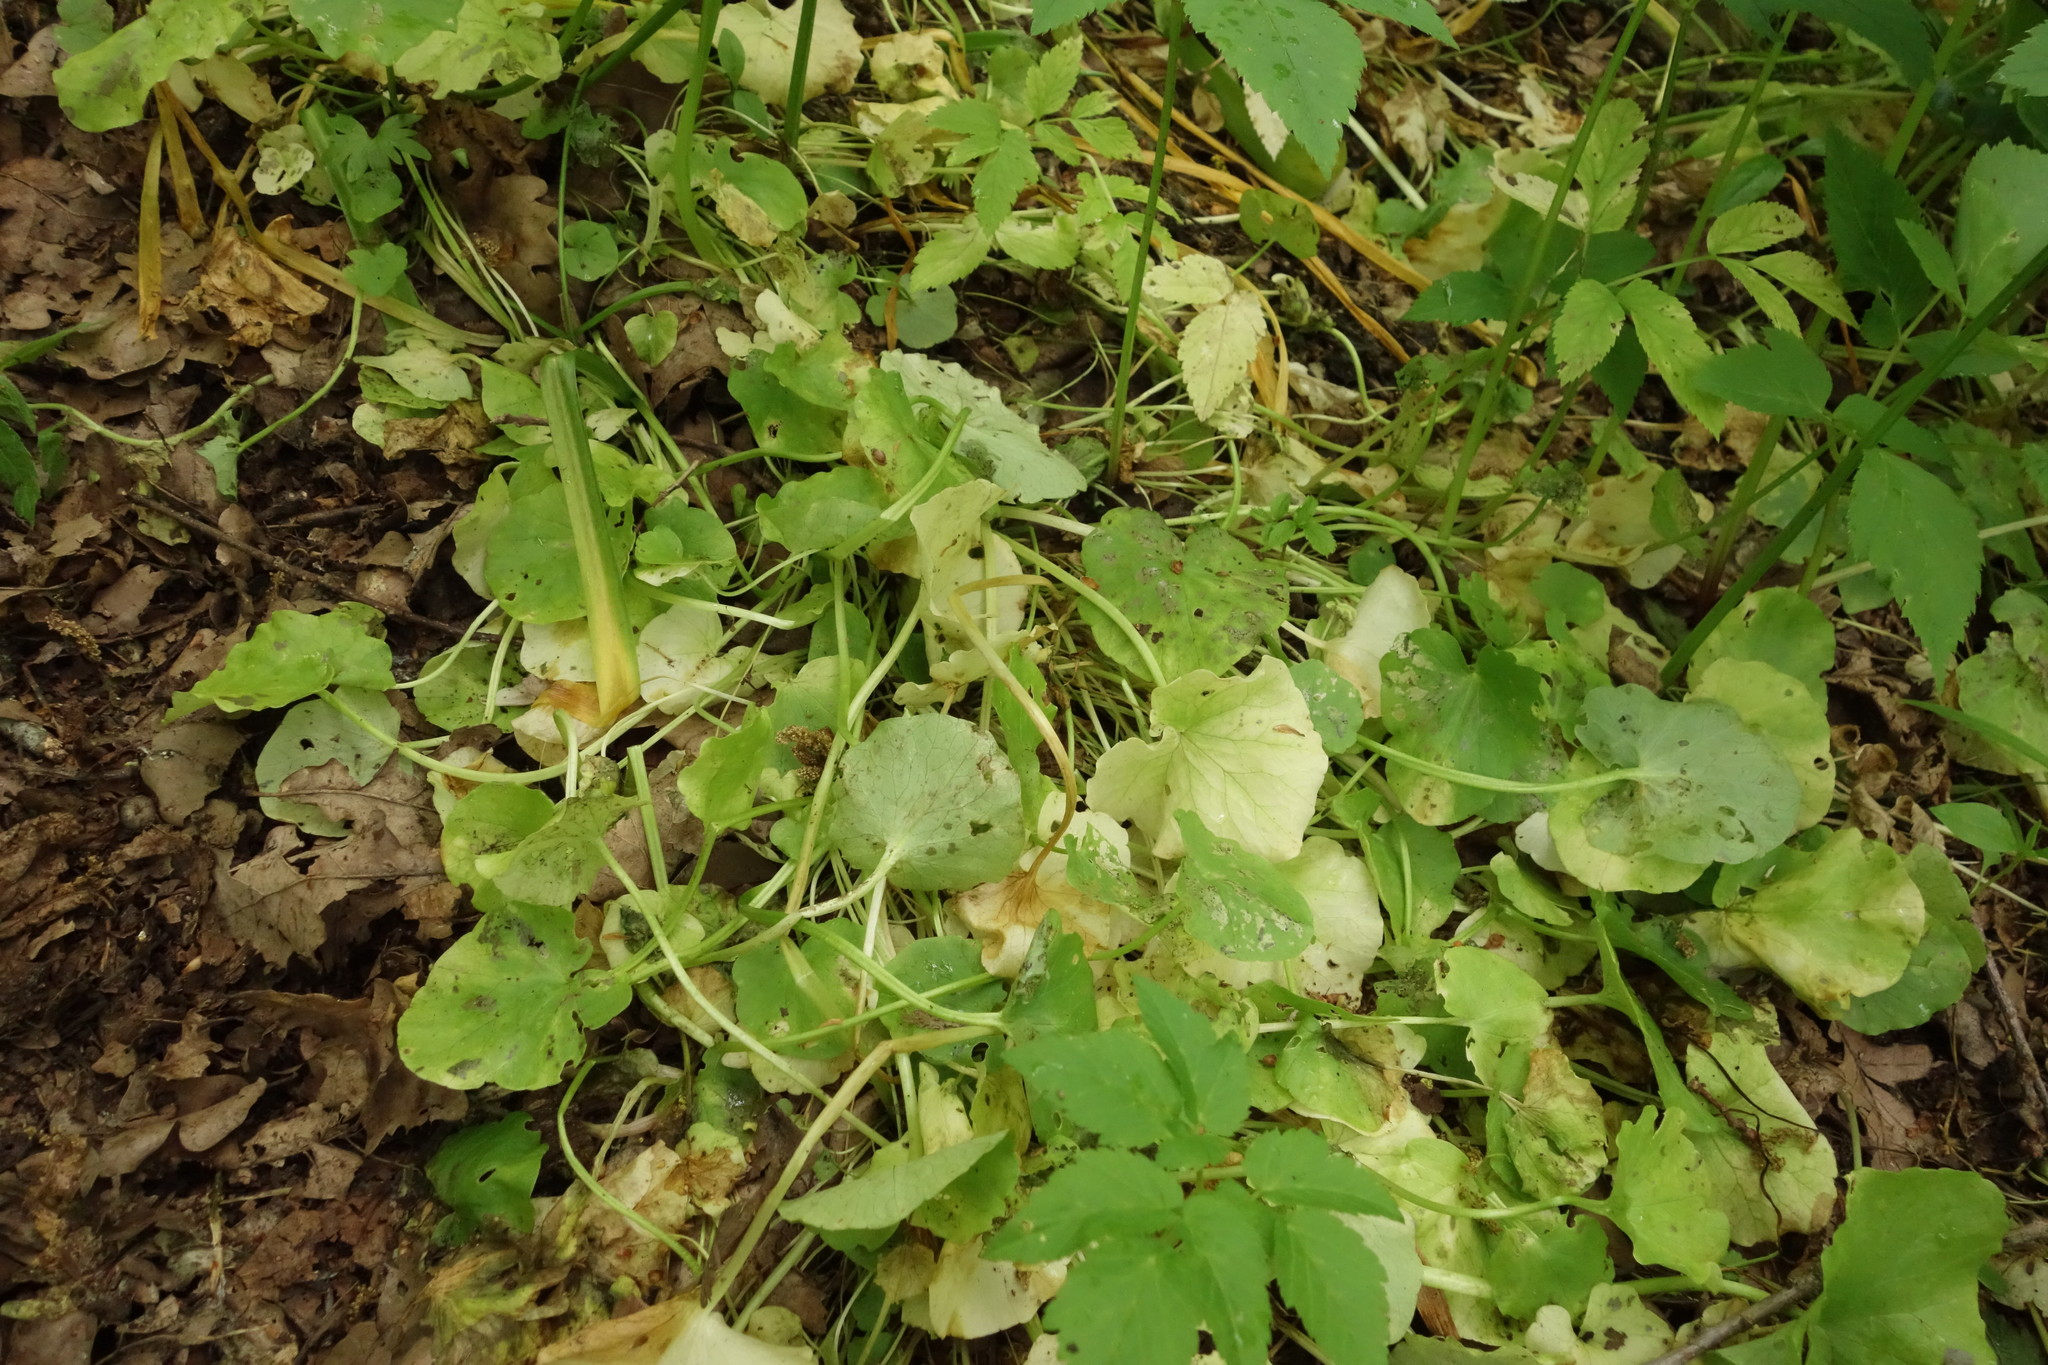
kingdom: Plantae
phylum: Tracheophyta
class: Magnoliopsida
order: Ranunculales
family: Ranunculaceae
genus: Ficaria
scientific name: Ficaria verna
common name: Lesser celandine
